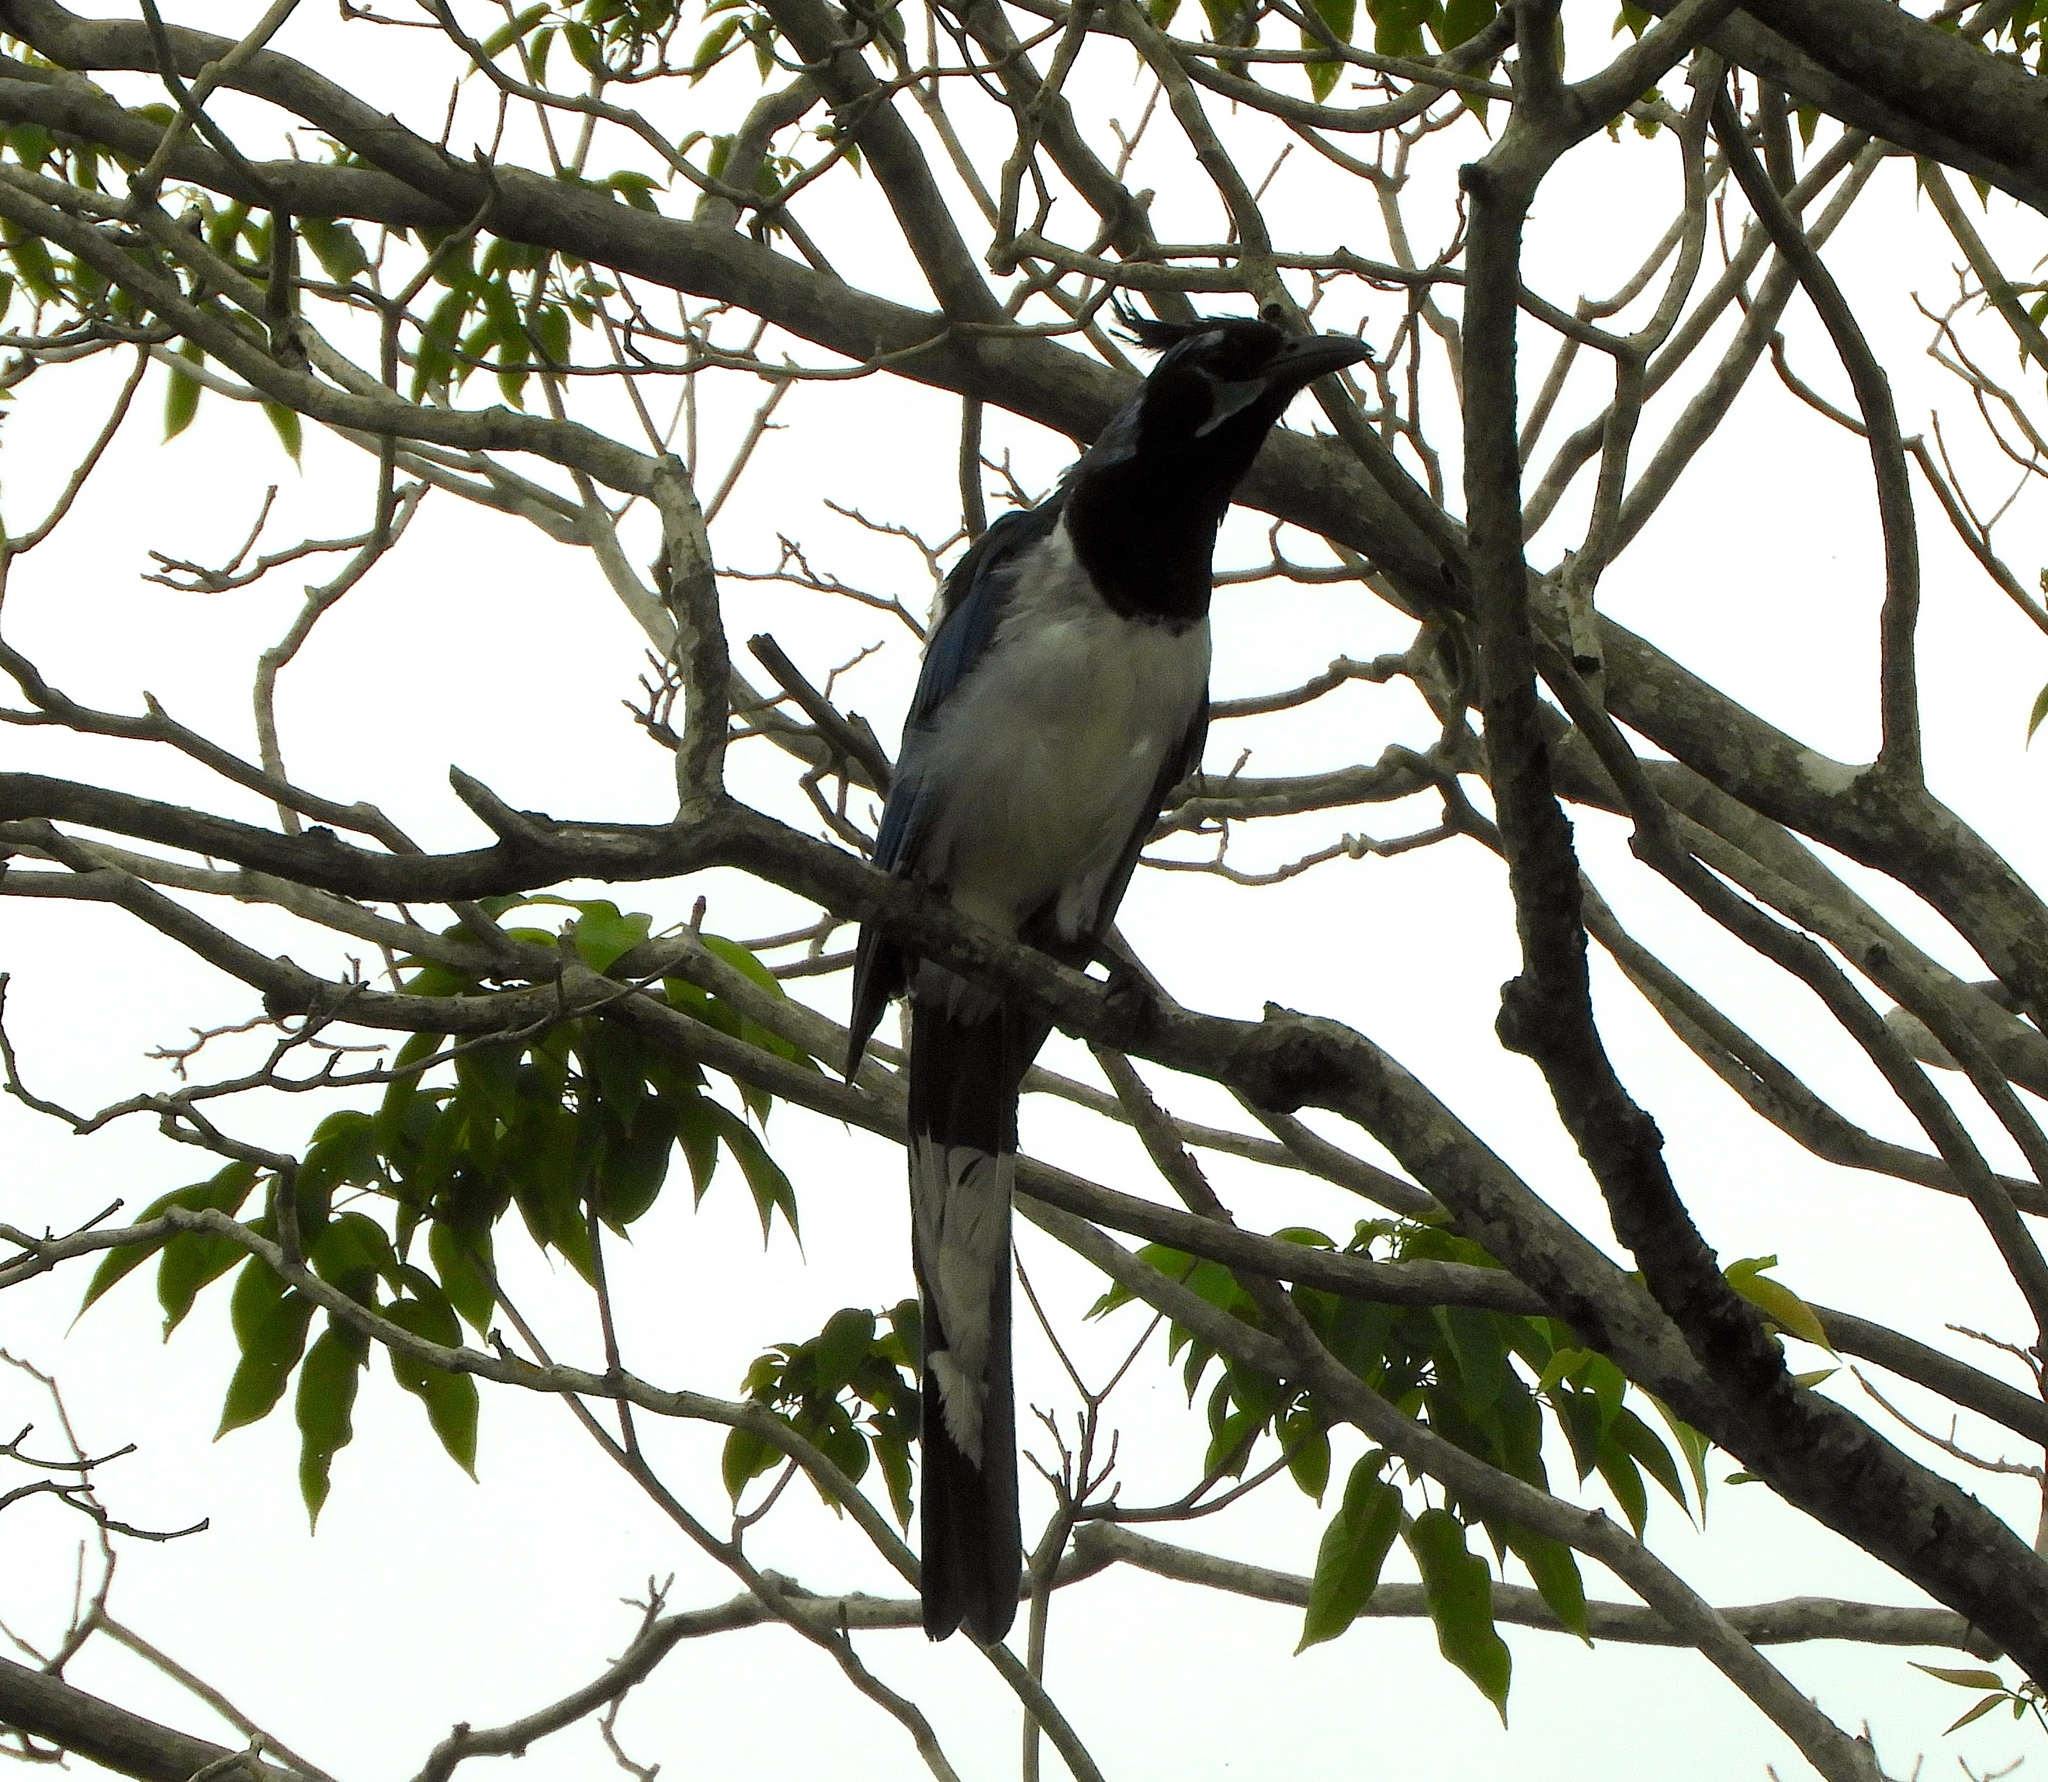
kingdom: Animalia
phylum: Chordata
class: Aves
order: Passeriformes
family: Corvidae
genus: Calocitta
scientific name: Calocitta colliei
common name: Black-throated magpie-jay
